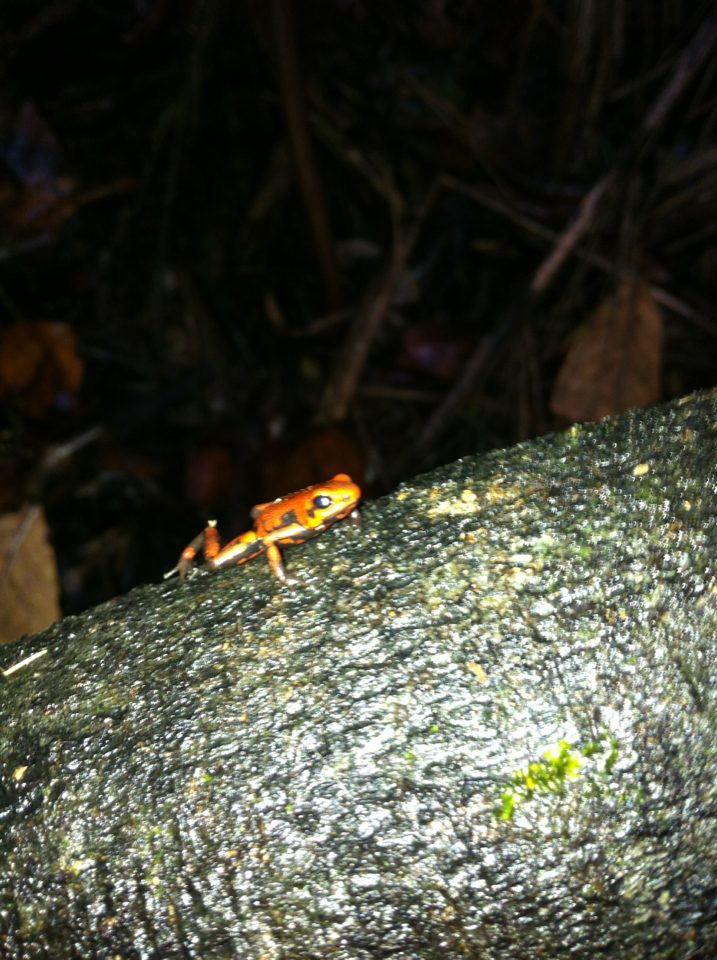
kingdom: Animalia
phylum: Chordata
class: Amphibia
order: Anura
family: Dendrobatidae
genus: Andinobates
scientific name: Andinobates cassidyhornae
